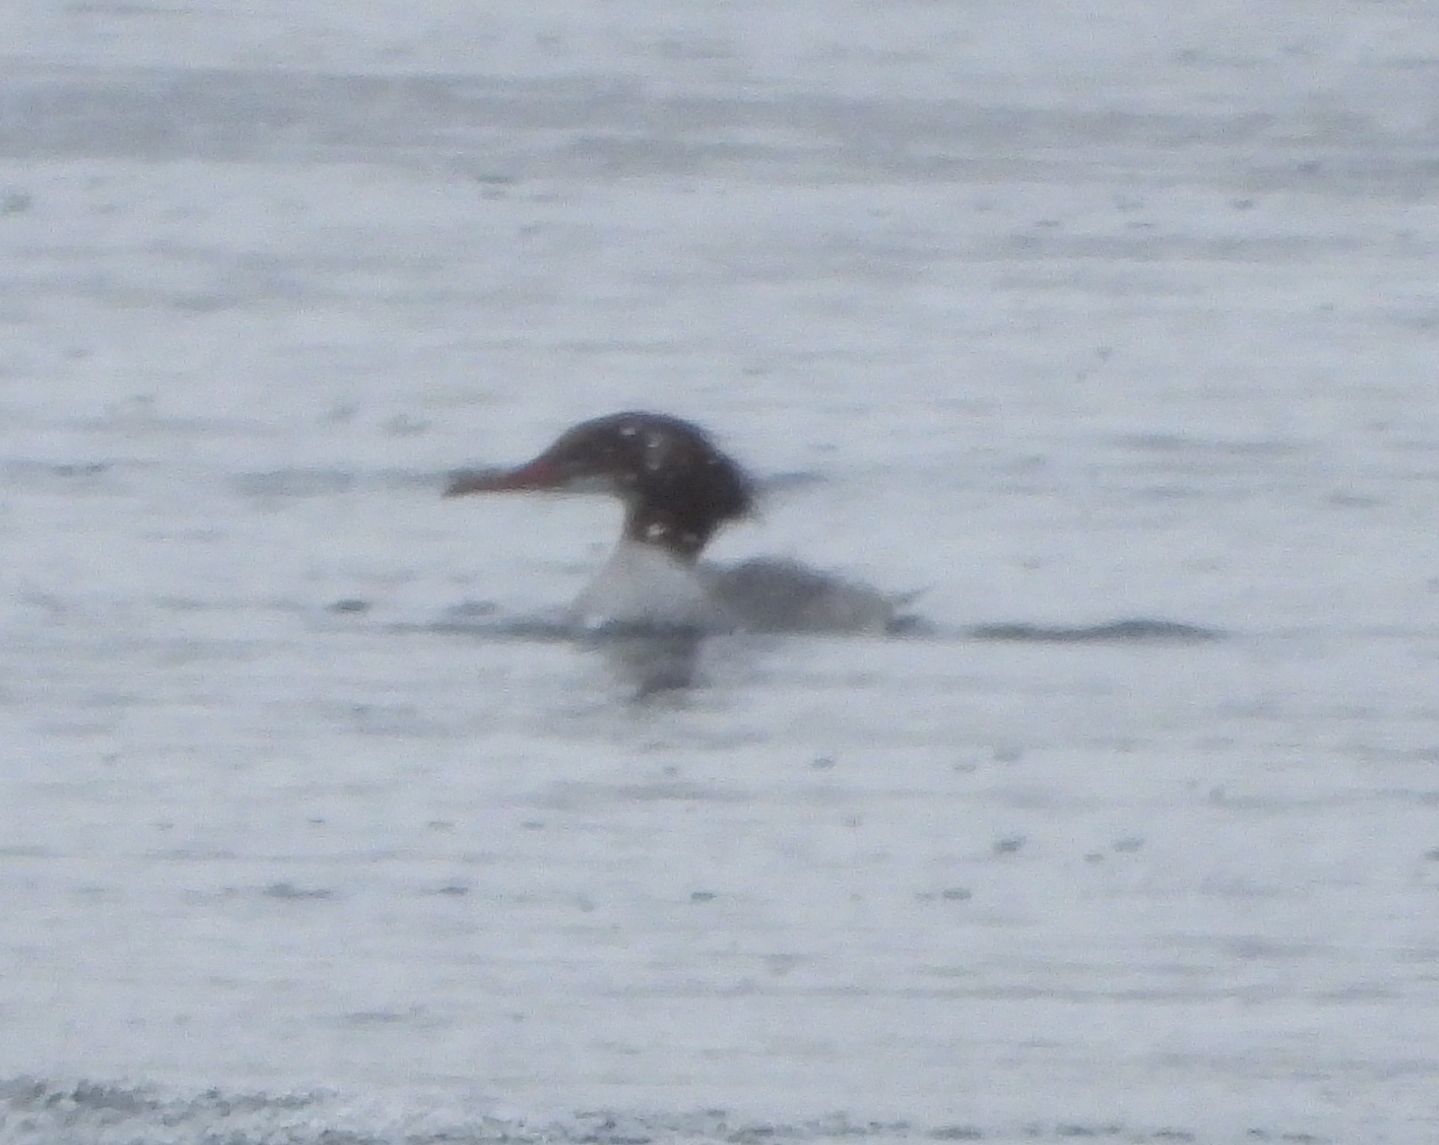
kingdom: Animalia
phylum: Chordata
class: Aves
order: Anseriformes
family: Anatidae
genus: Mergus
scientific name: Mergus merganser
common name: Common merganser
